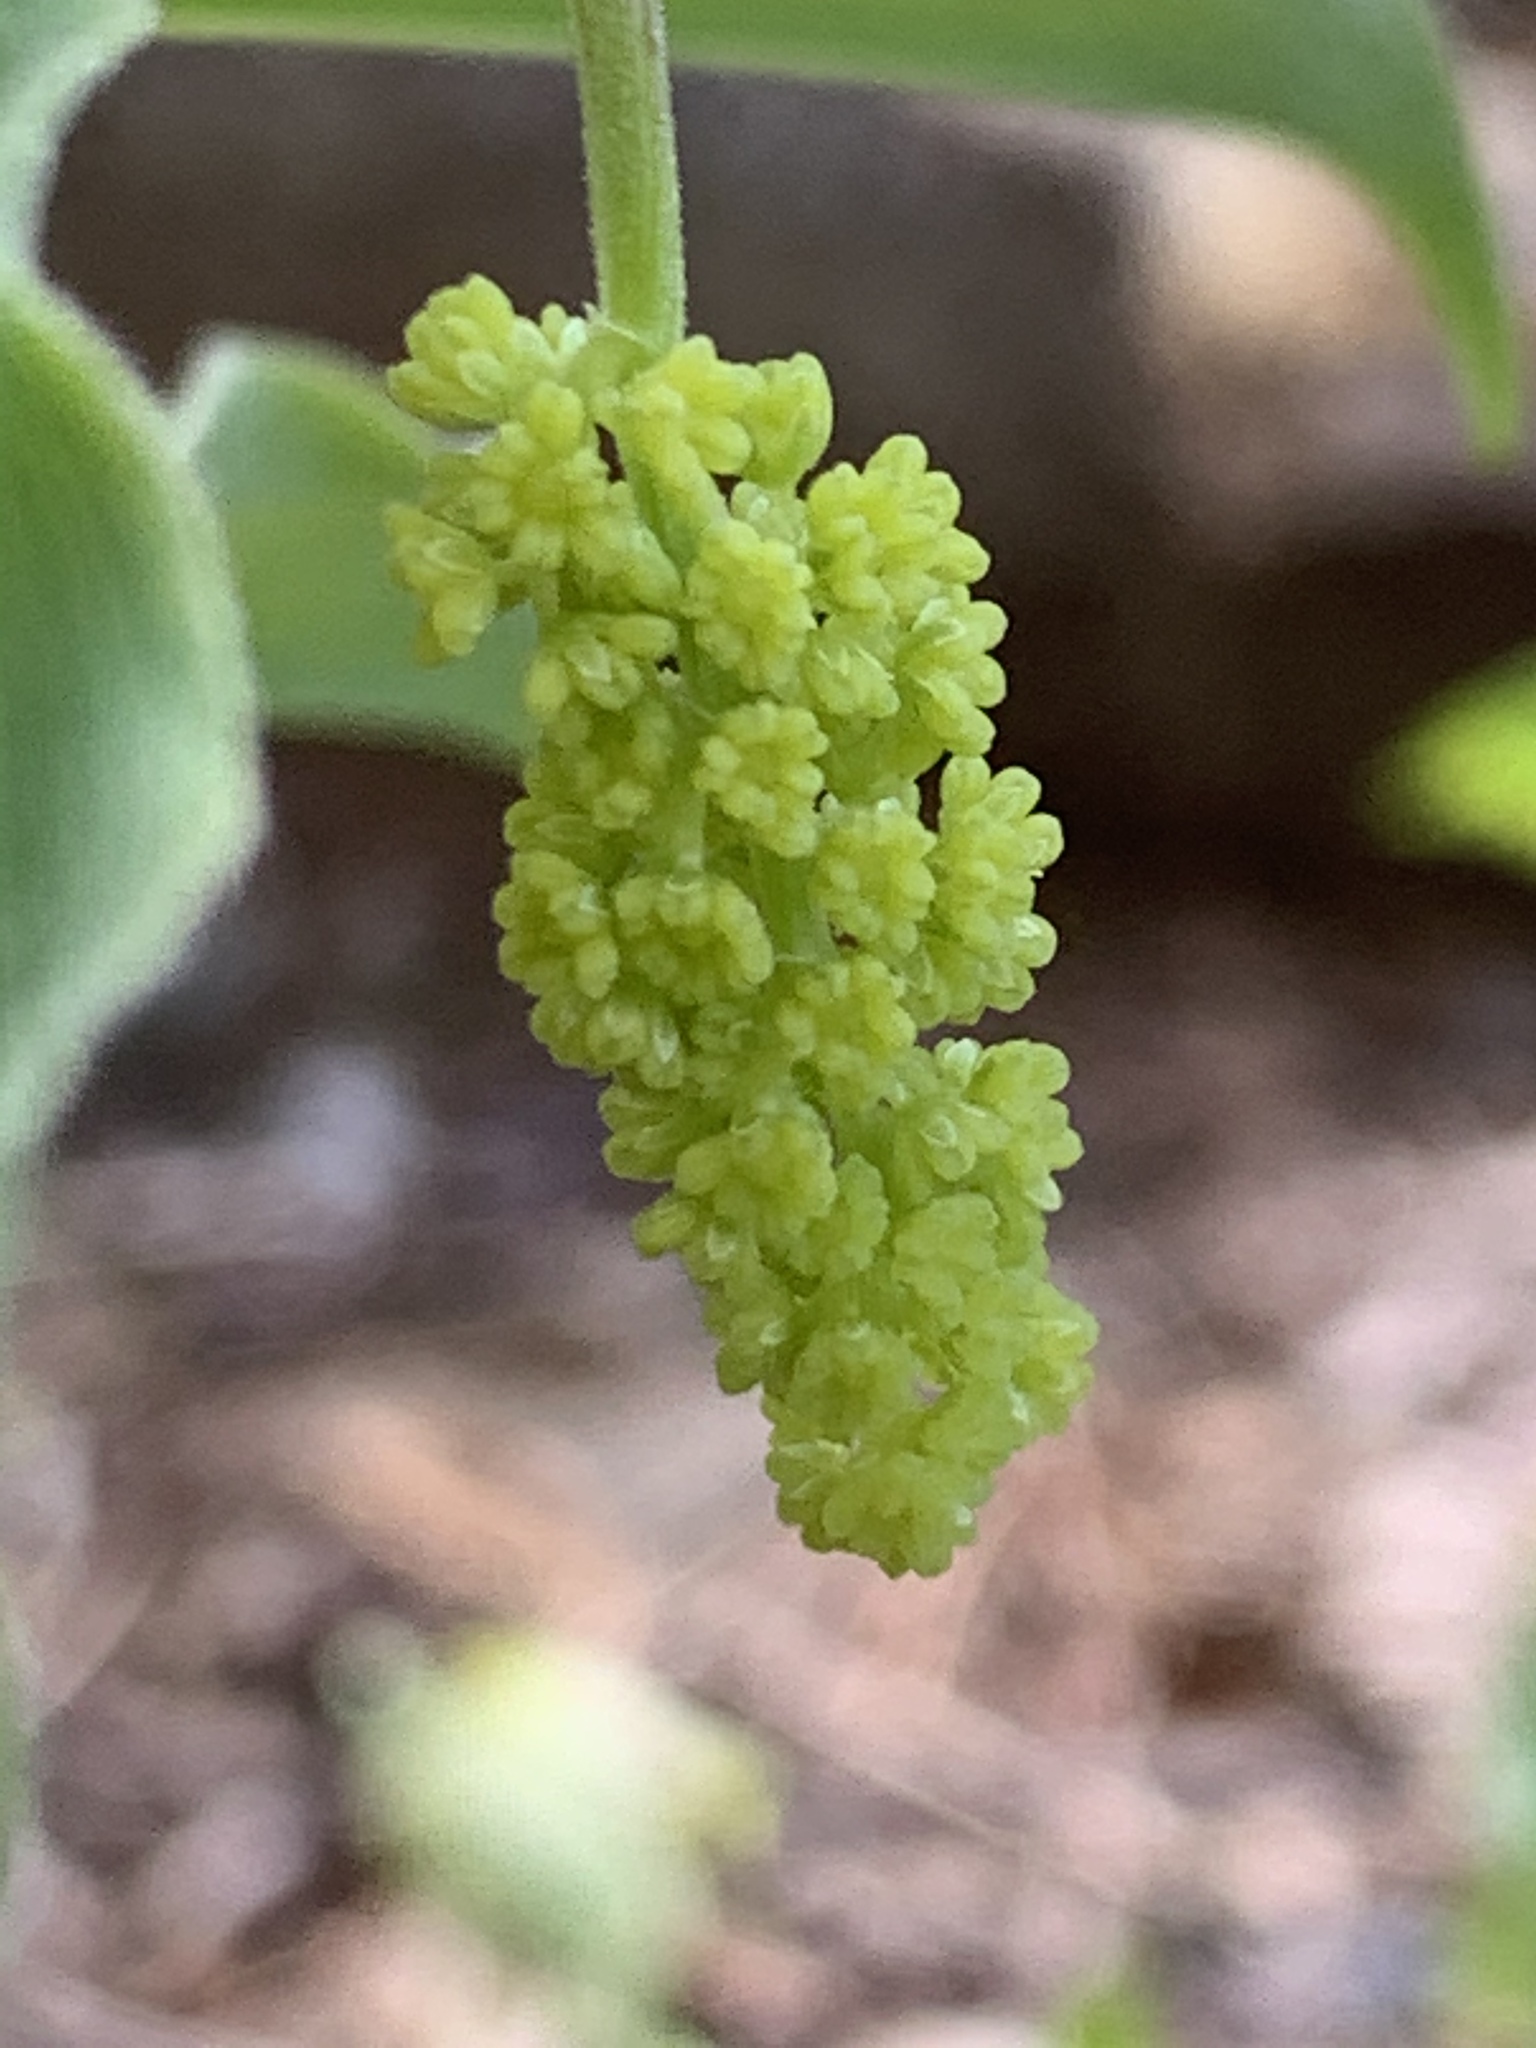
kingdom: Plantae
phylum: Tracheophyta
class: Liliopsida
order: Asparagales
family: Asparagaceae
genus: Maianthemum
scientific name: Maianthemum racemosum
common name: False spikenard
